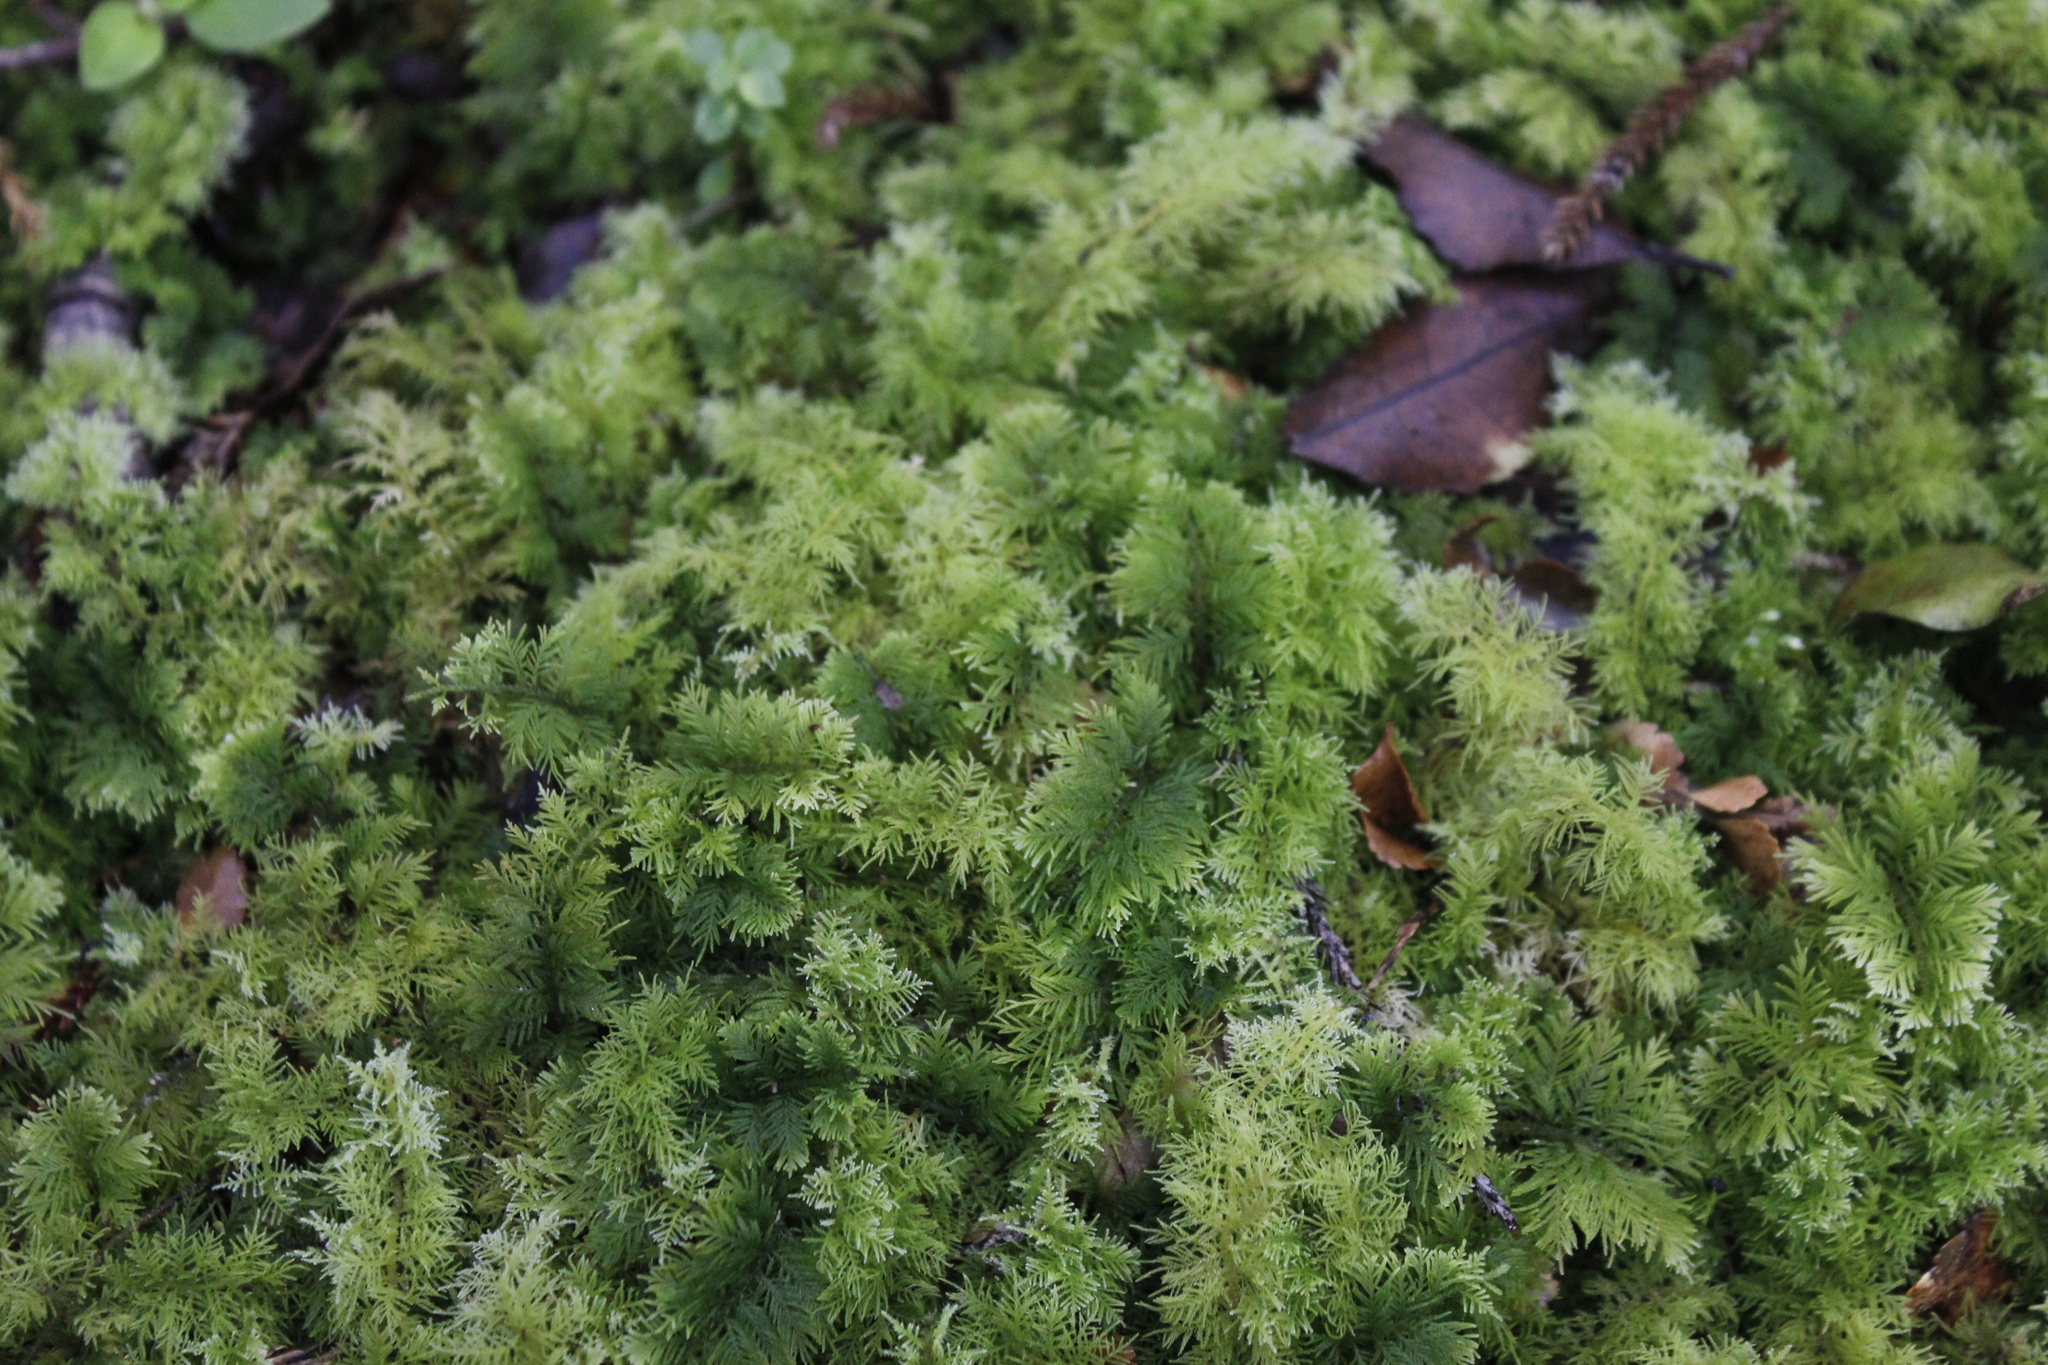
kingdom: Plantae
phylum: Bryophyta
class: Bryopsida
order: Hypnales
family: Thuidiaceae
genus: Thuidium
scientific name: Thuidium laeviusculum
